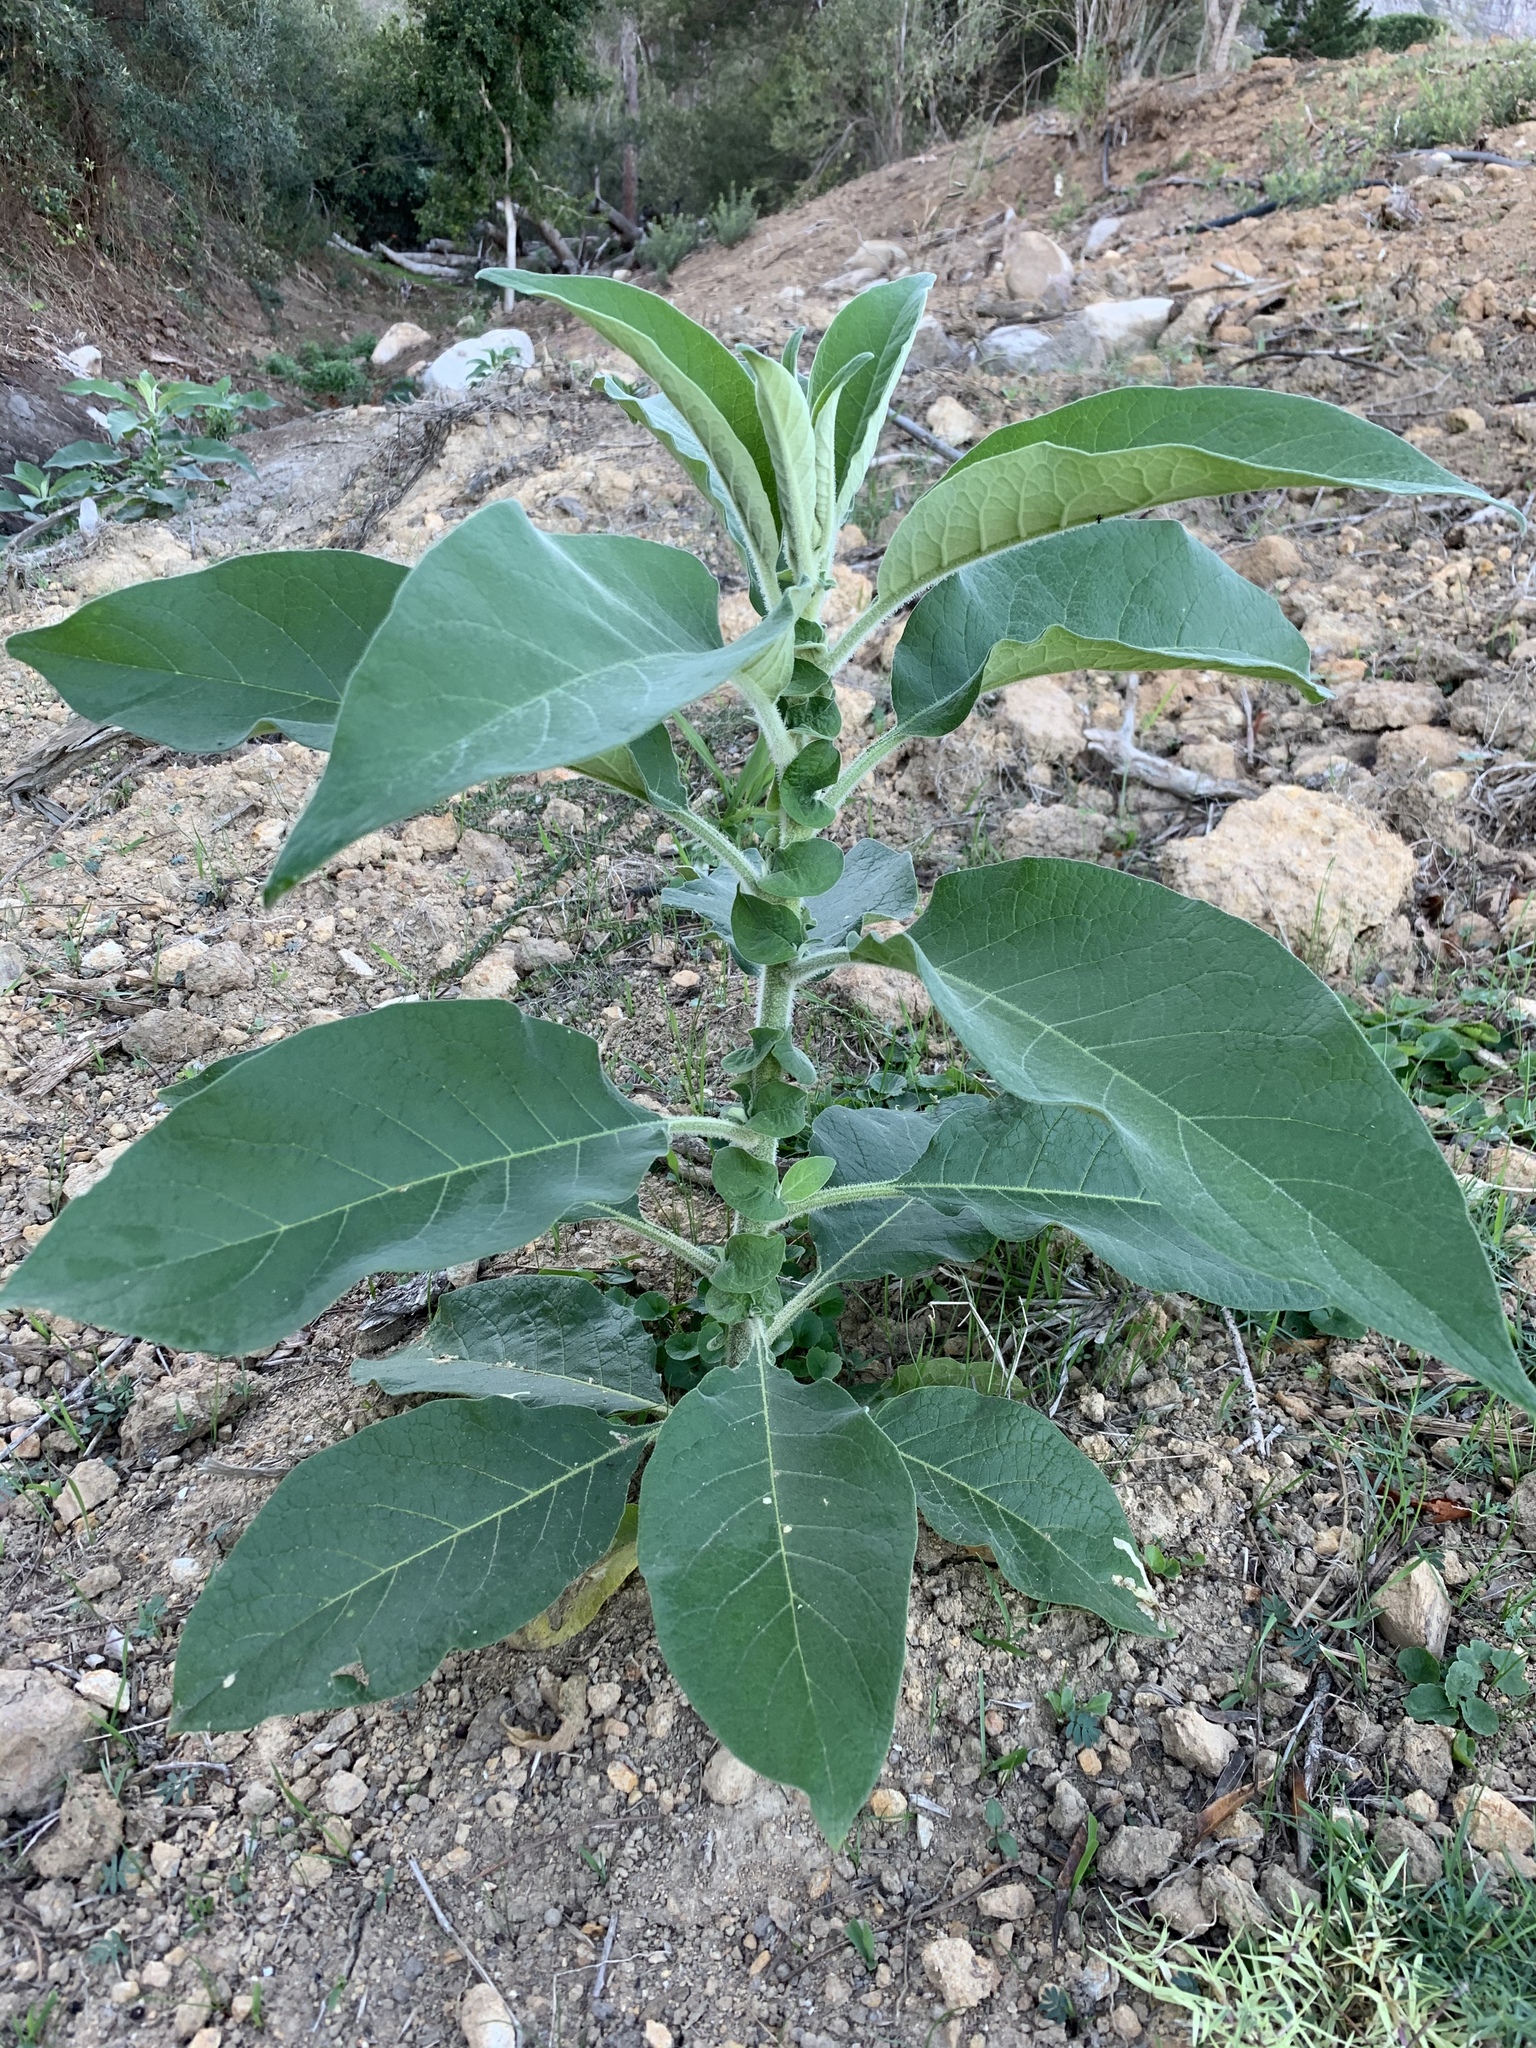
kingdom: Plantae
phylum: Tracheophyta
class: Magnoliopsida
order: Solanales
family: Solanaceae
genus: Solanum
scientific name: Solanum mauritianum
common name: Earleaf nightshade
